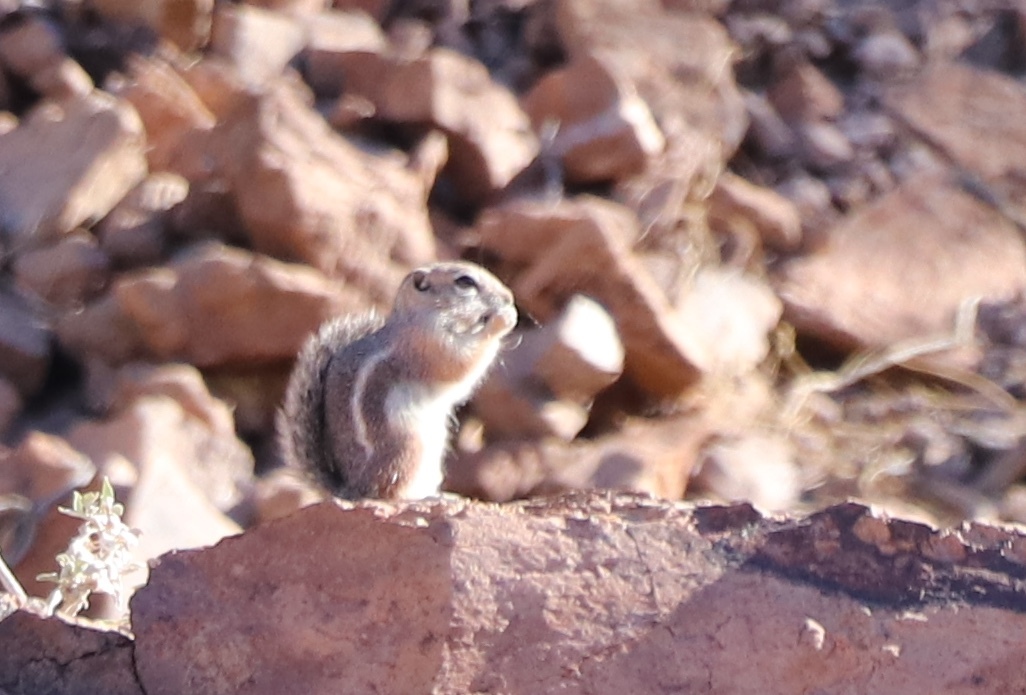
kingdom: Animalia
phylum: Chordata
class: Mammalia
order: Rodentia
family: Sciuridae
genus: Ammospermophilus
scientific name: Ammospermophilus harrisii
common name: Harris's antelope squirrel
